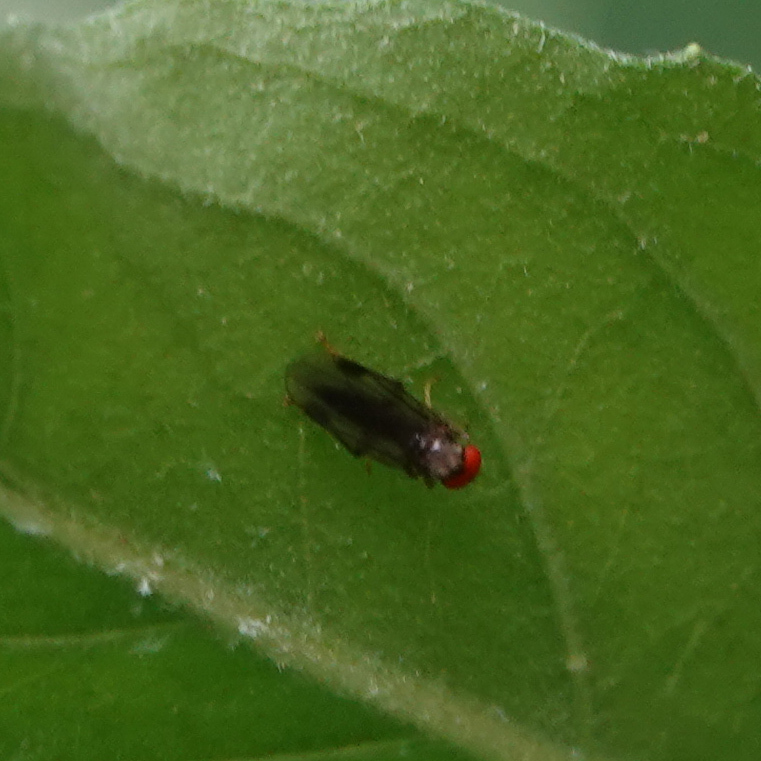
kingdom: Animalia
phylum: Arthropoda
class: Insecta
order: Diptera
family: Hybotidae
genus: Syneches
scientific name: Syneches thoracicus
